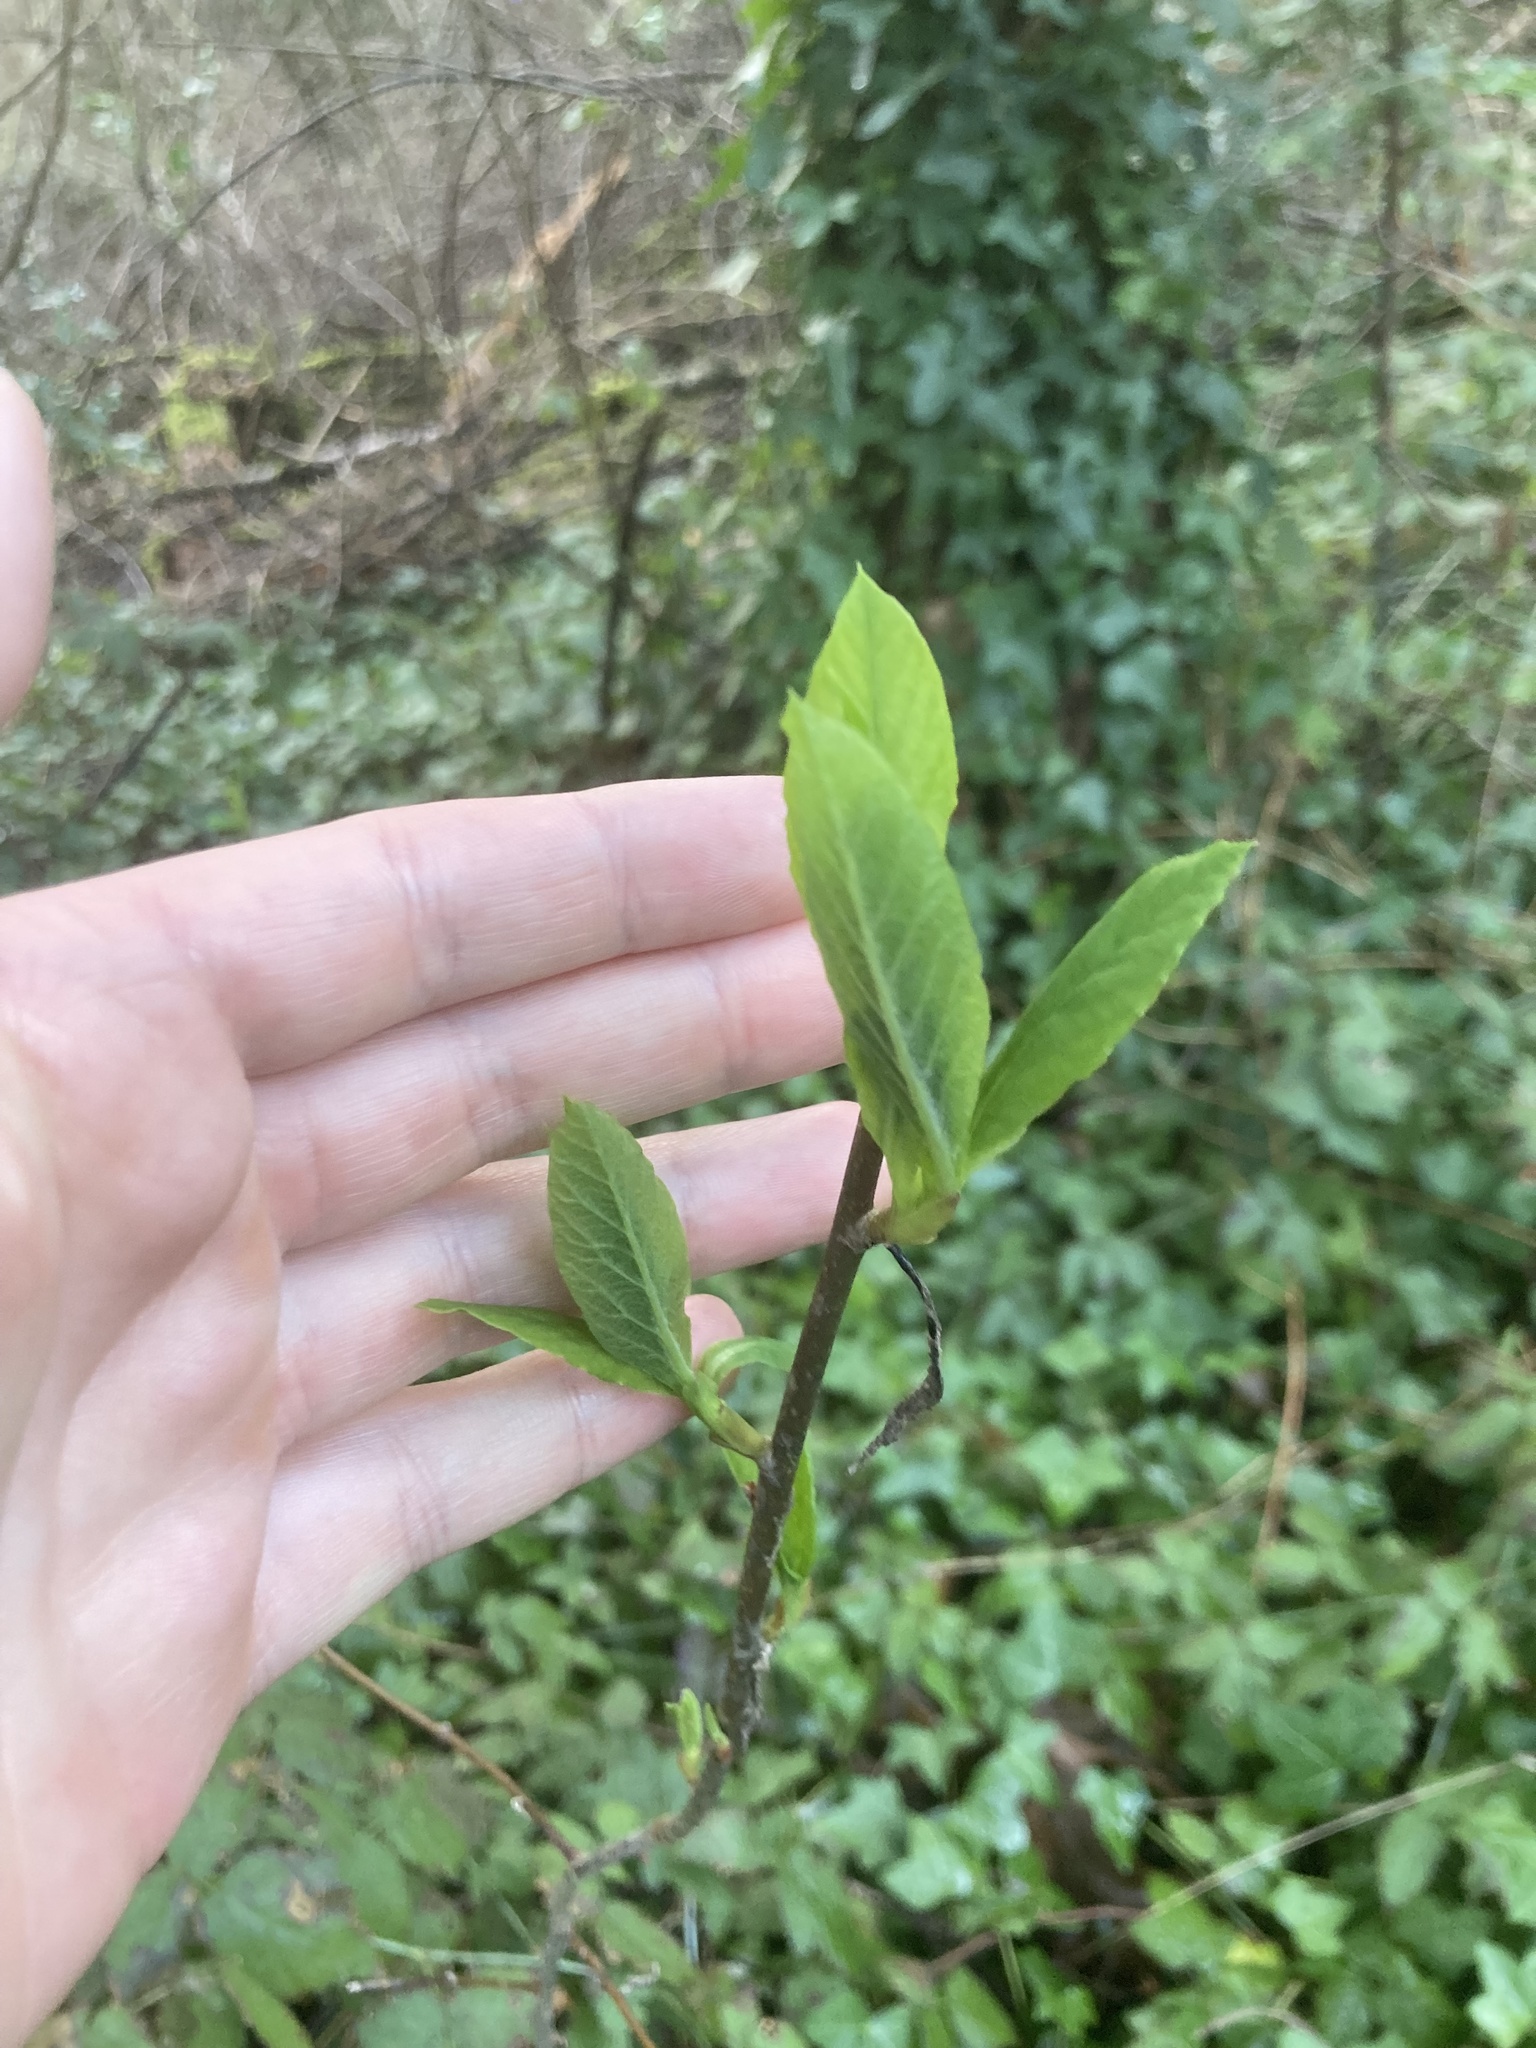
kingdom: Plantae
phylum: Tracheophyta
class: Magnoliopsida
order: Rosales
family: Rosaceae
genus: Oemleria
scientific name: Oemleria cerasiformis
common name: Osoberry
